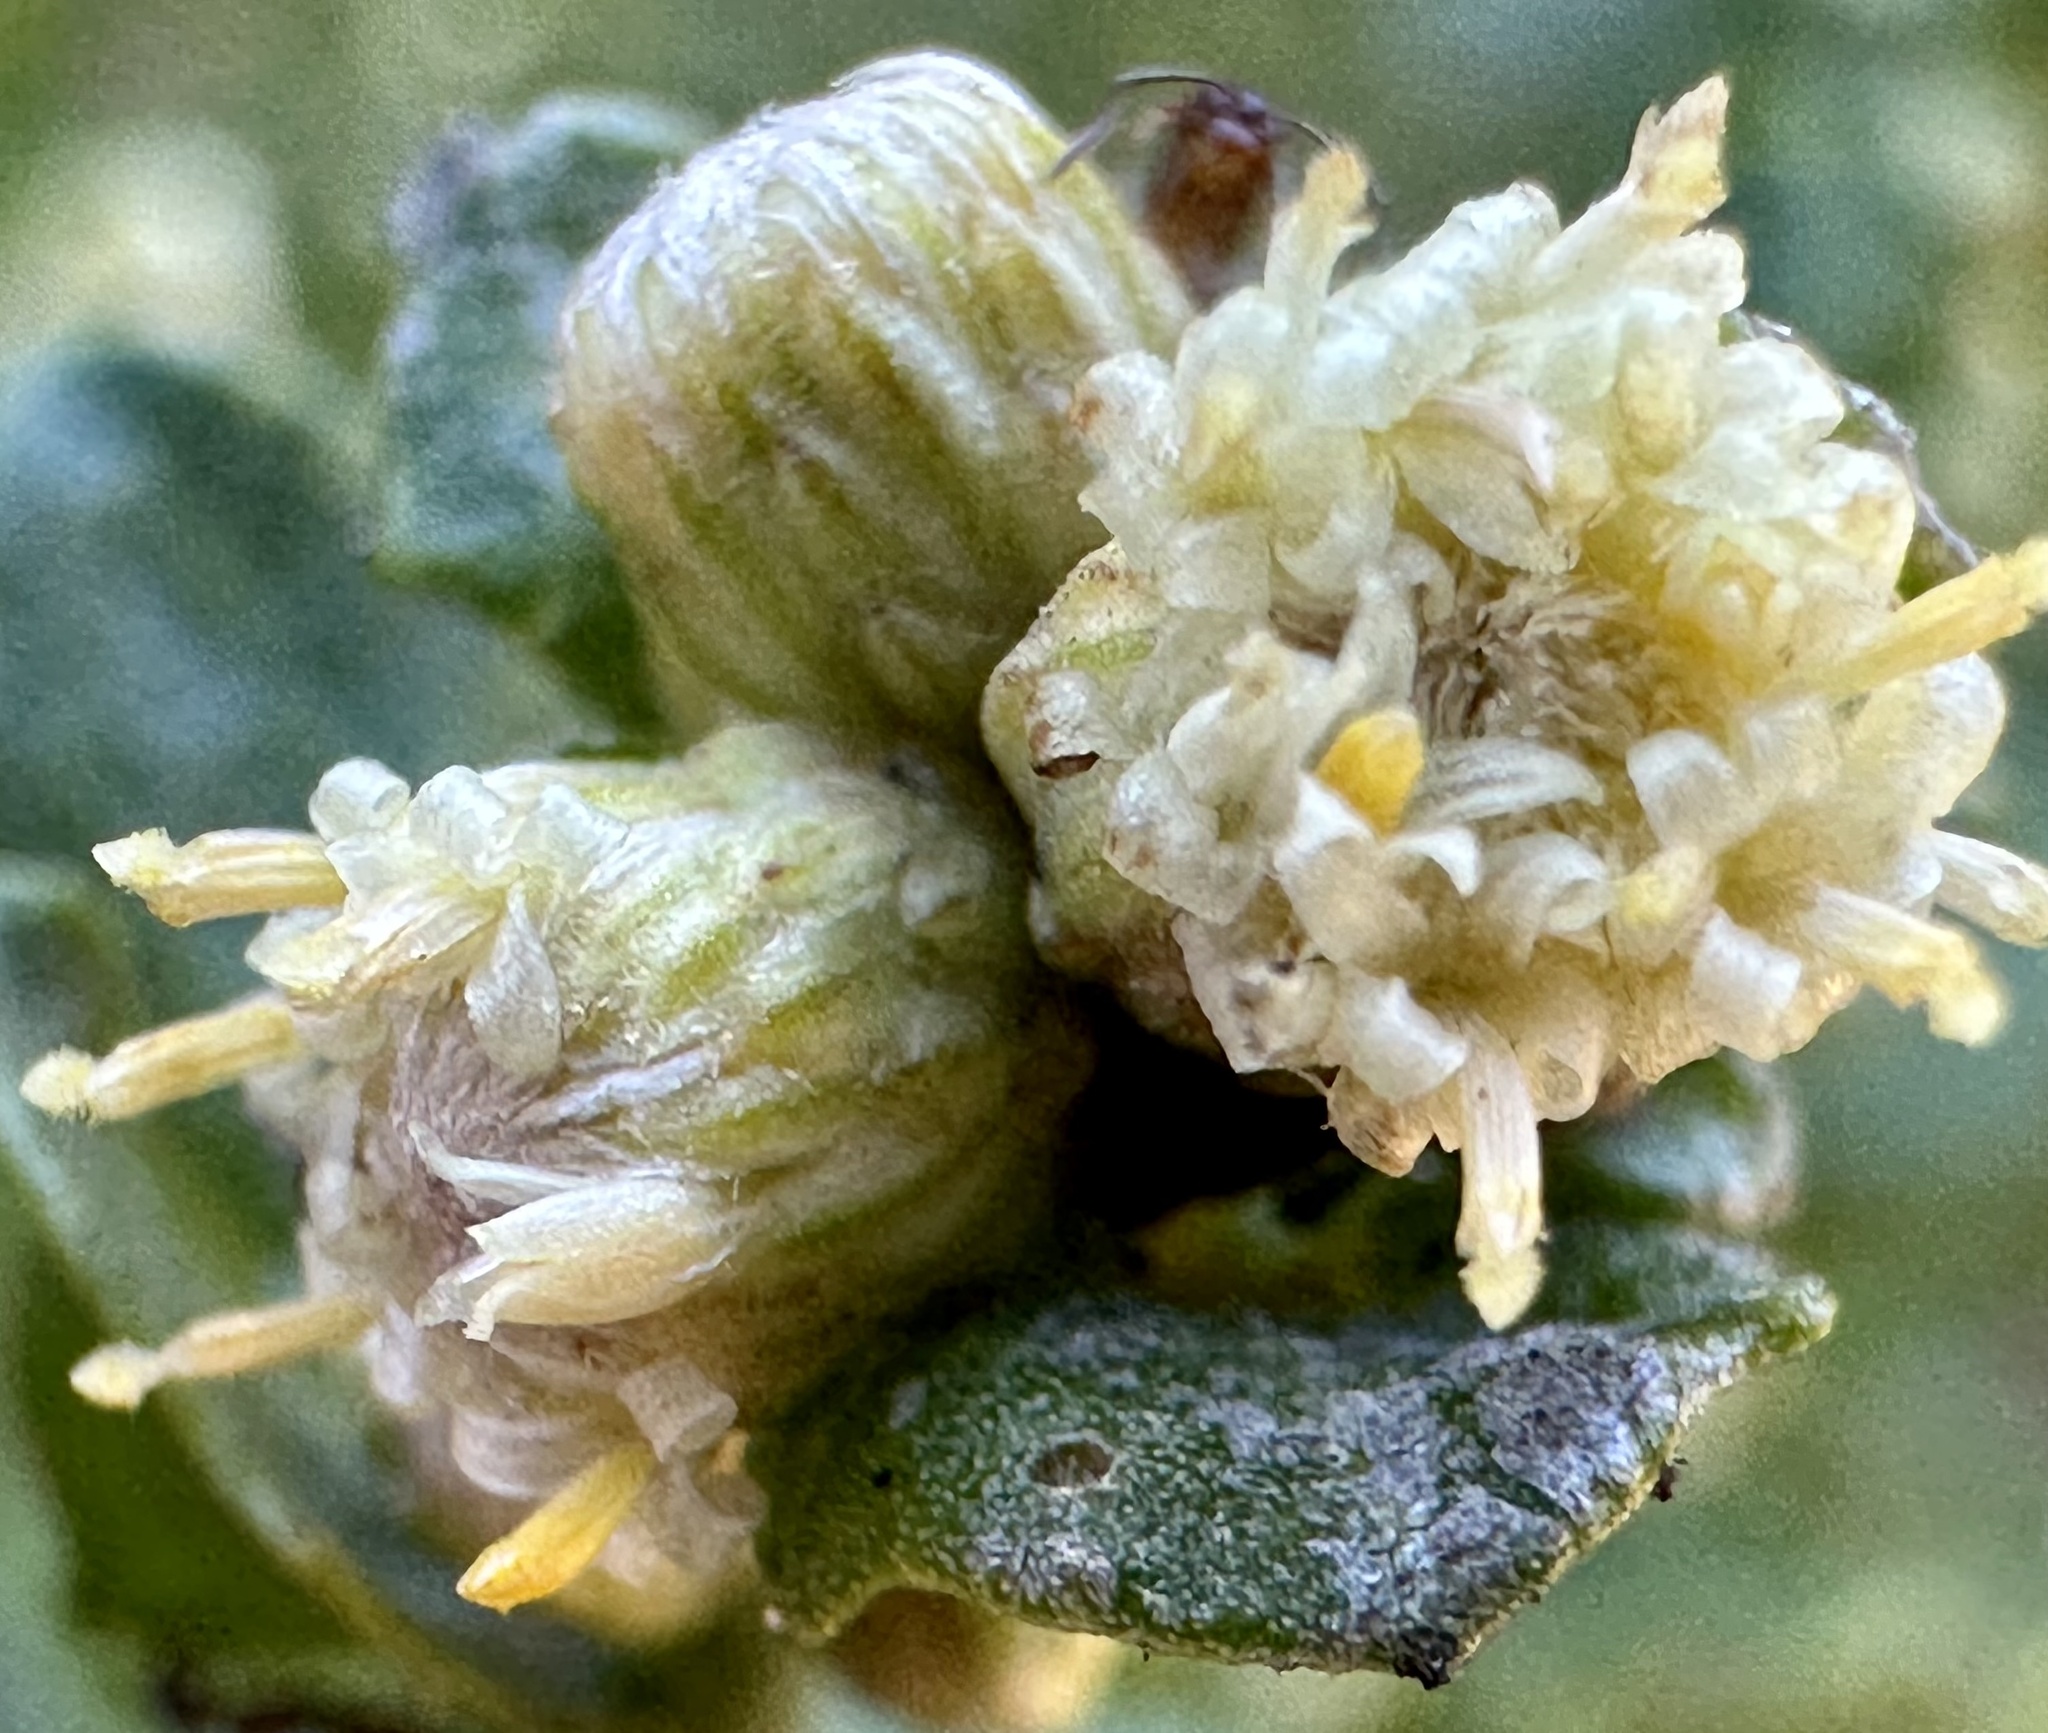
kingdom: Plantae
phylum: Tracheophyta
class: Magnoliopsida
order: Asterales
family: Asteraceae
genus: Baccharis
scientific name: Baccharis pilularis
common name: Coyotebrush
